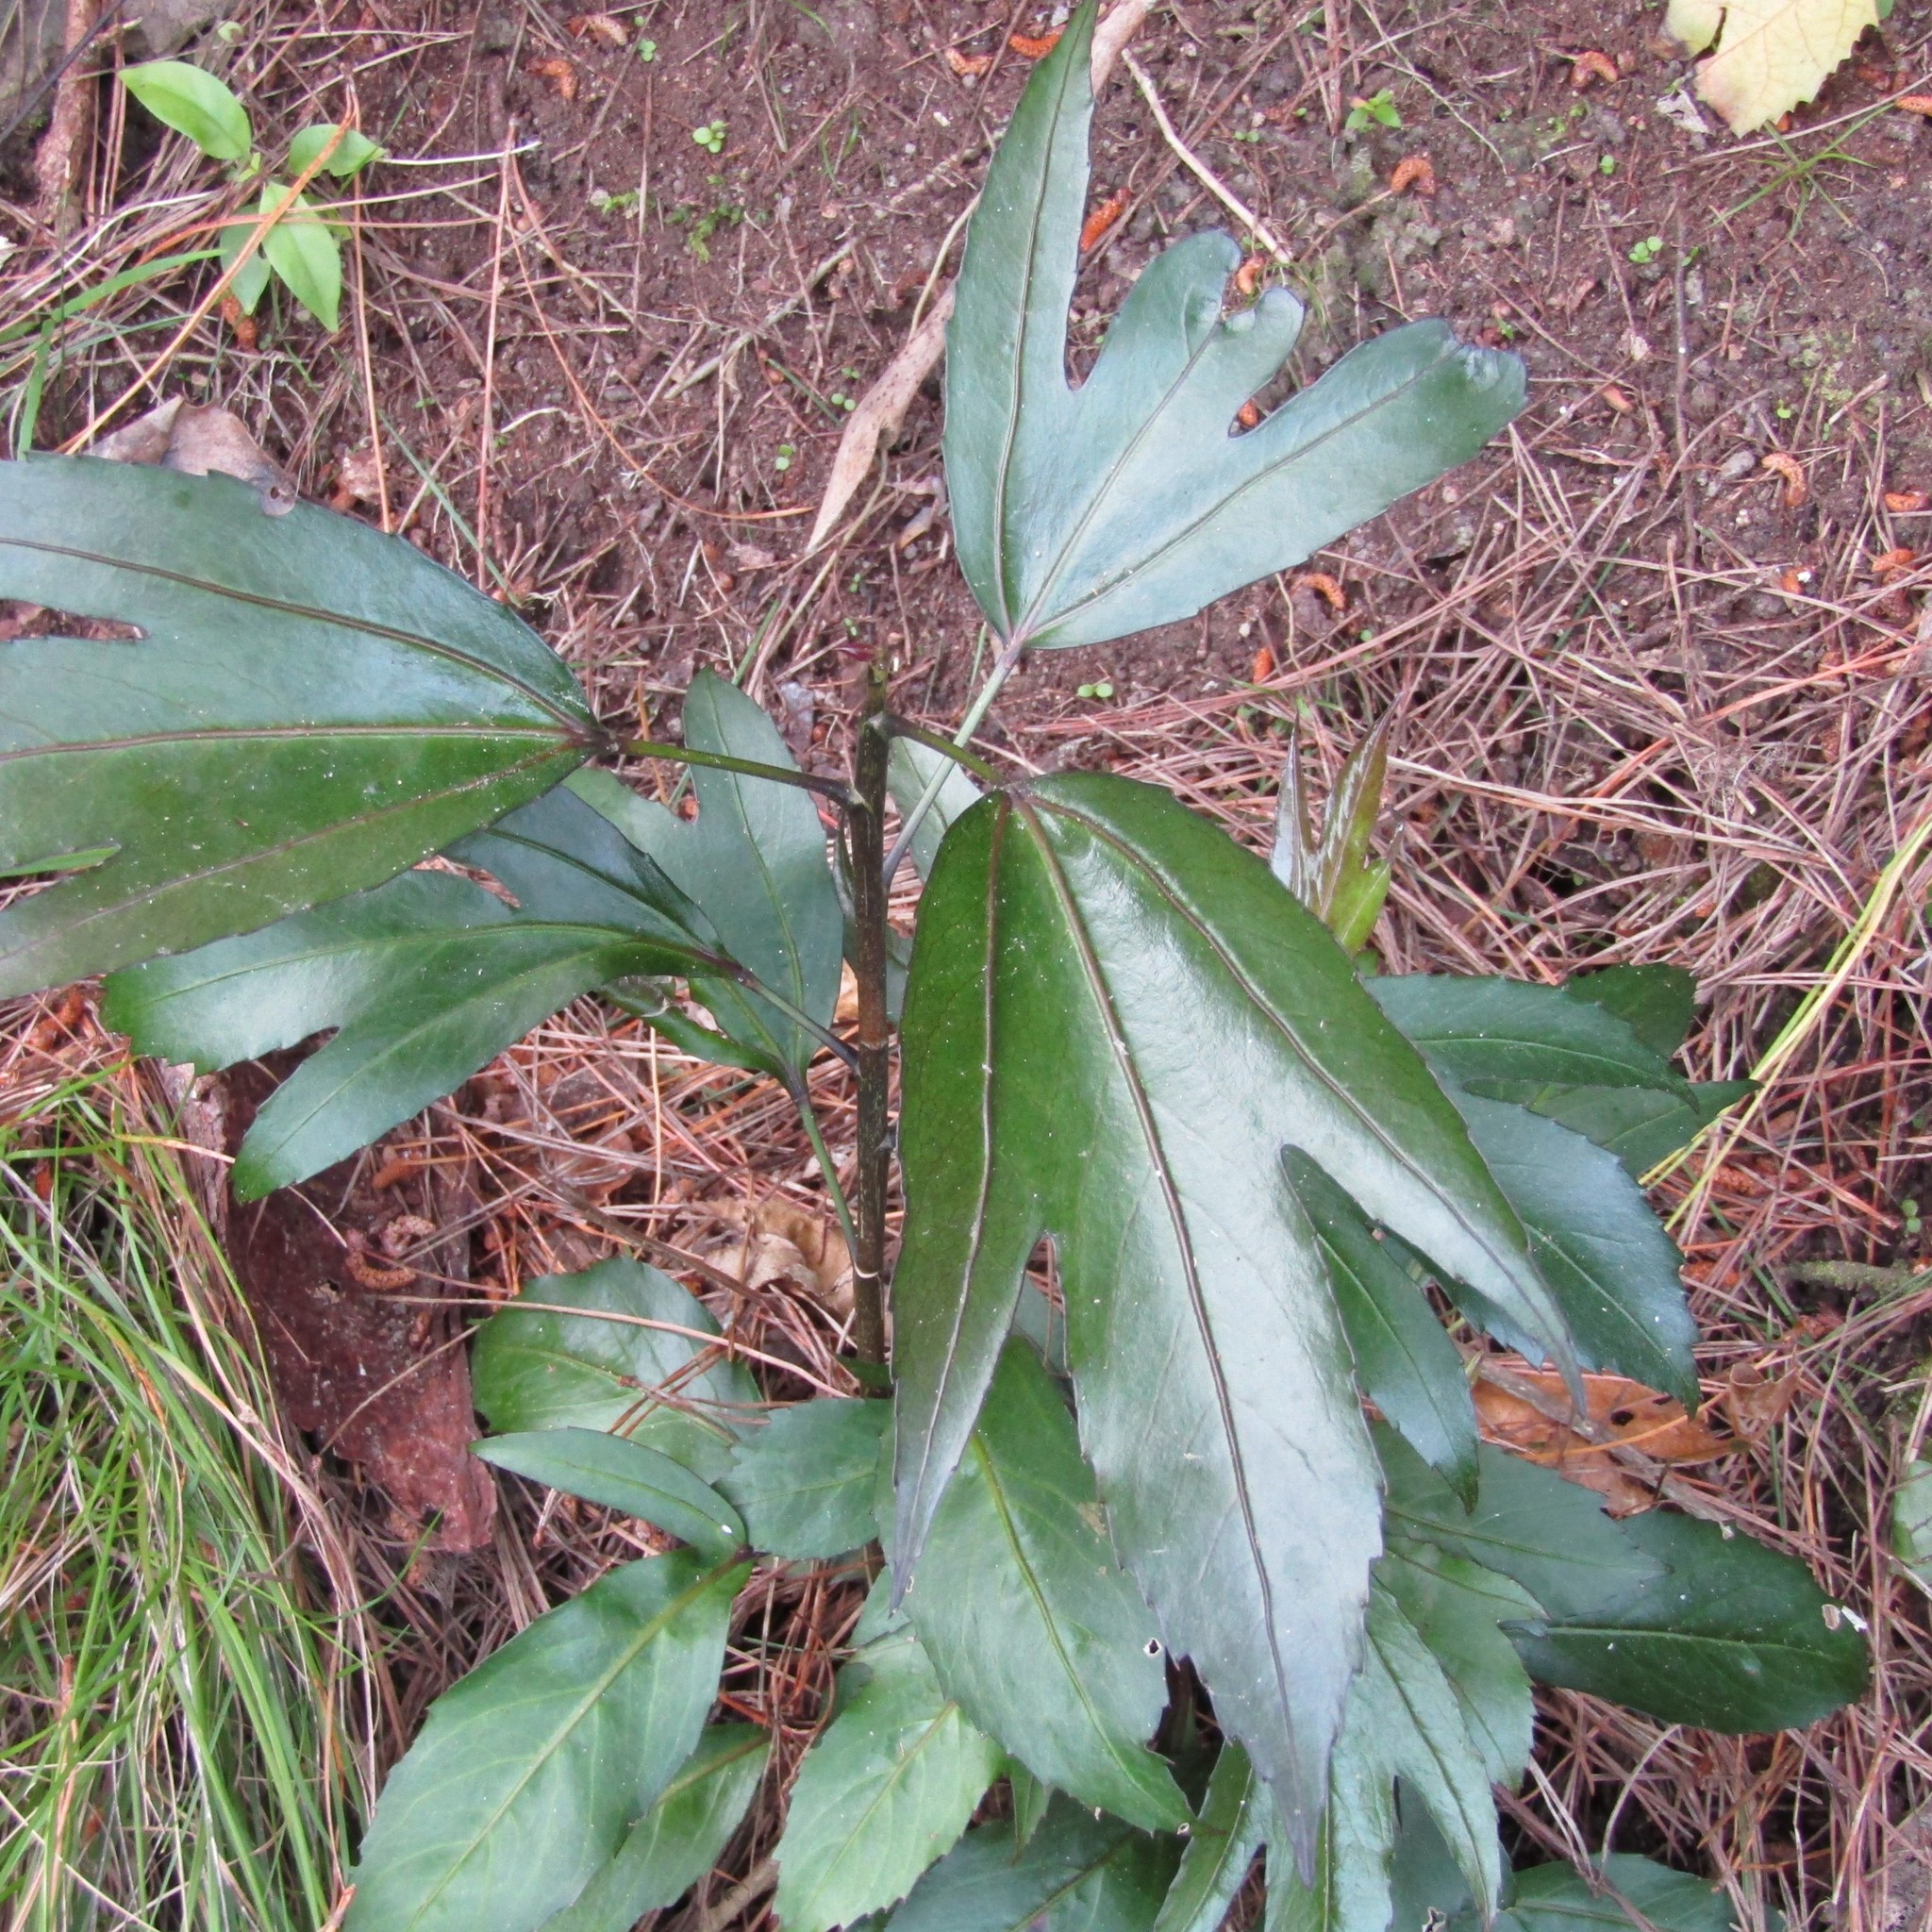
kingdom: Plantae
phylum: Tracheophyta
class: Magnoliopsida
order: Apiales
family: Araliaceae
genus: Pseudopanax
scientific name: Pseudopanax
